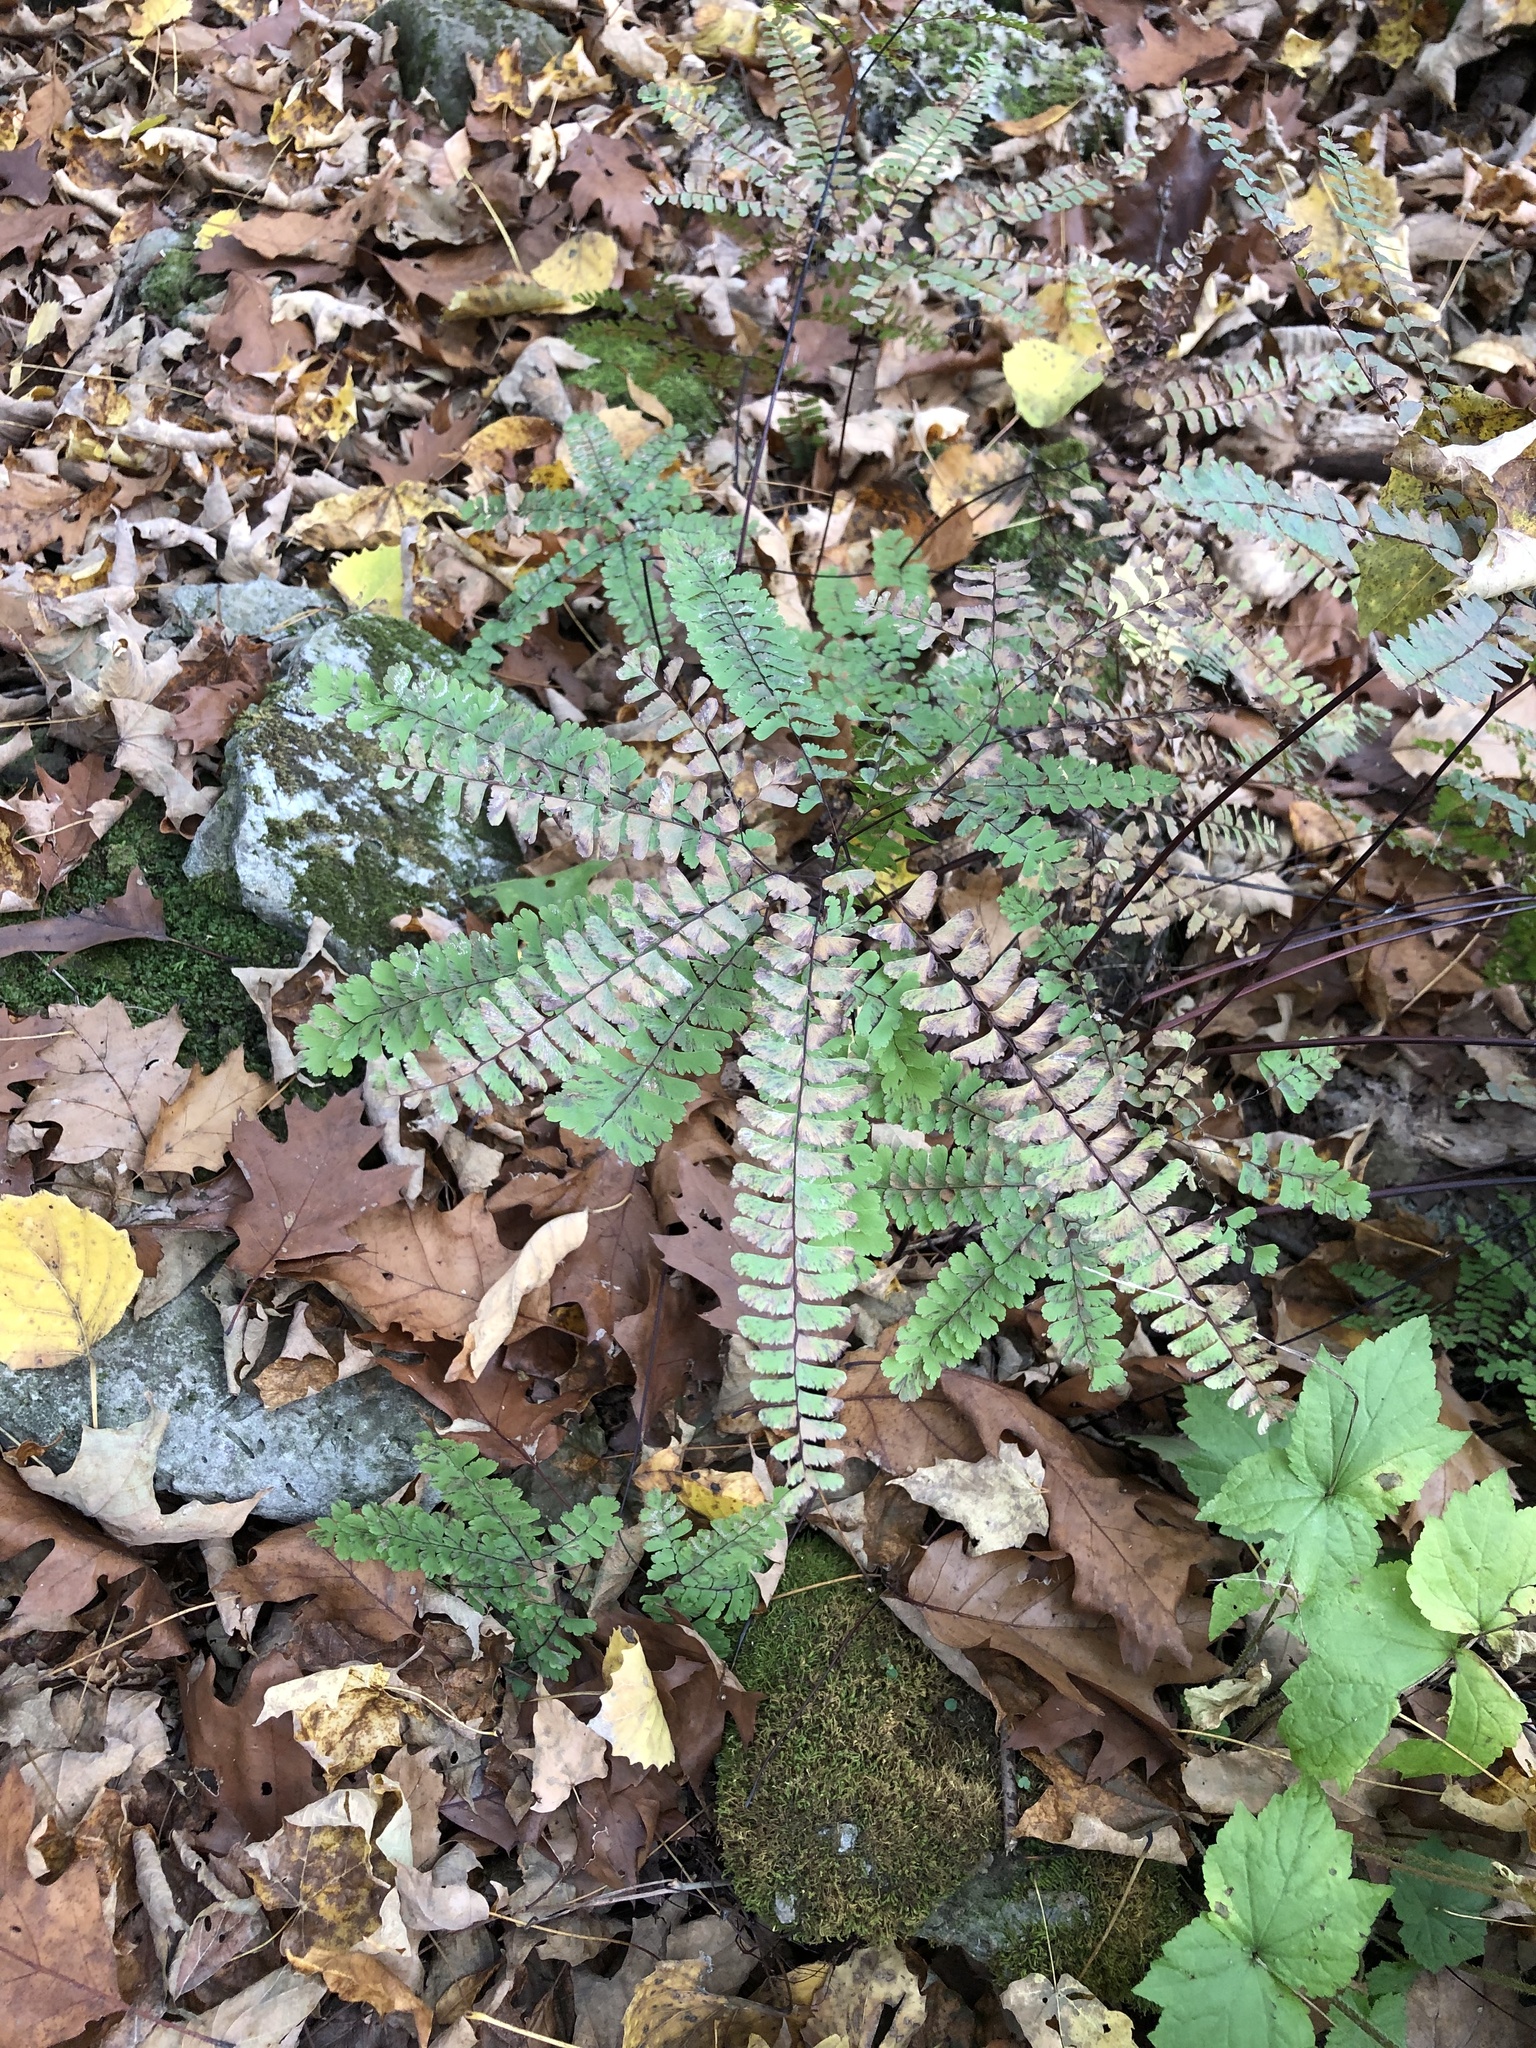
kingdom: Plantae
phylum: Tracheophyta
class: Polypodiopsida
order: Polypodiales
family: Pteridaceae
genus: Adiantum
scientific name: Adiantum pedatum
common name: Five-finger fern
